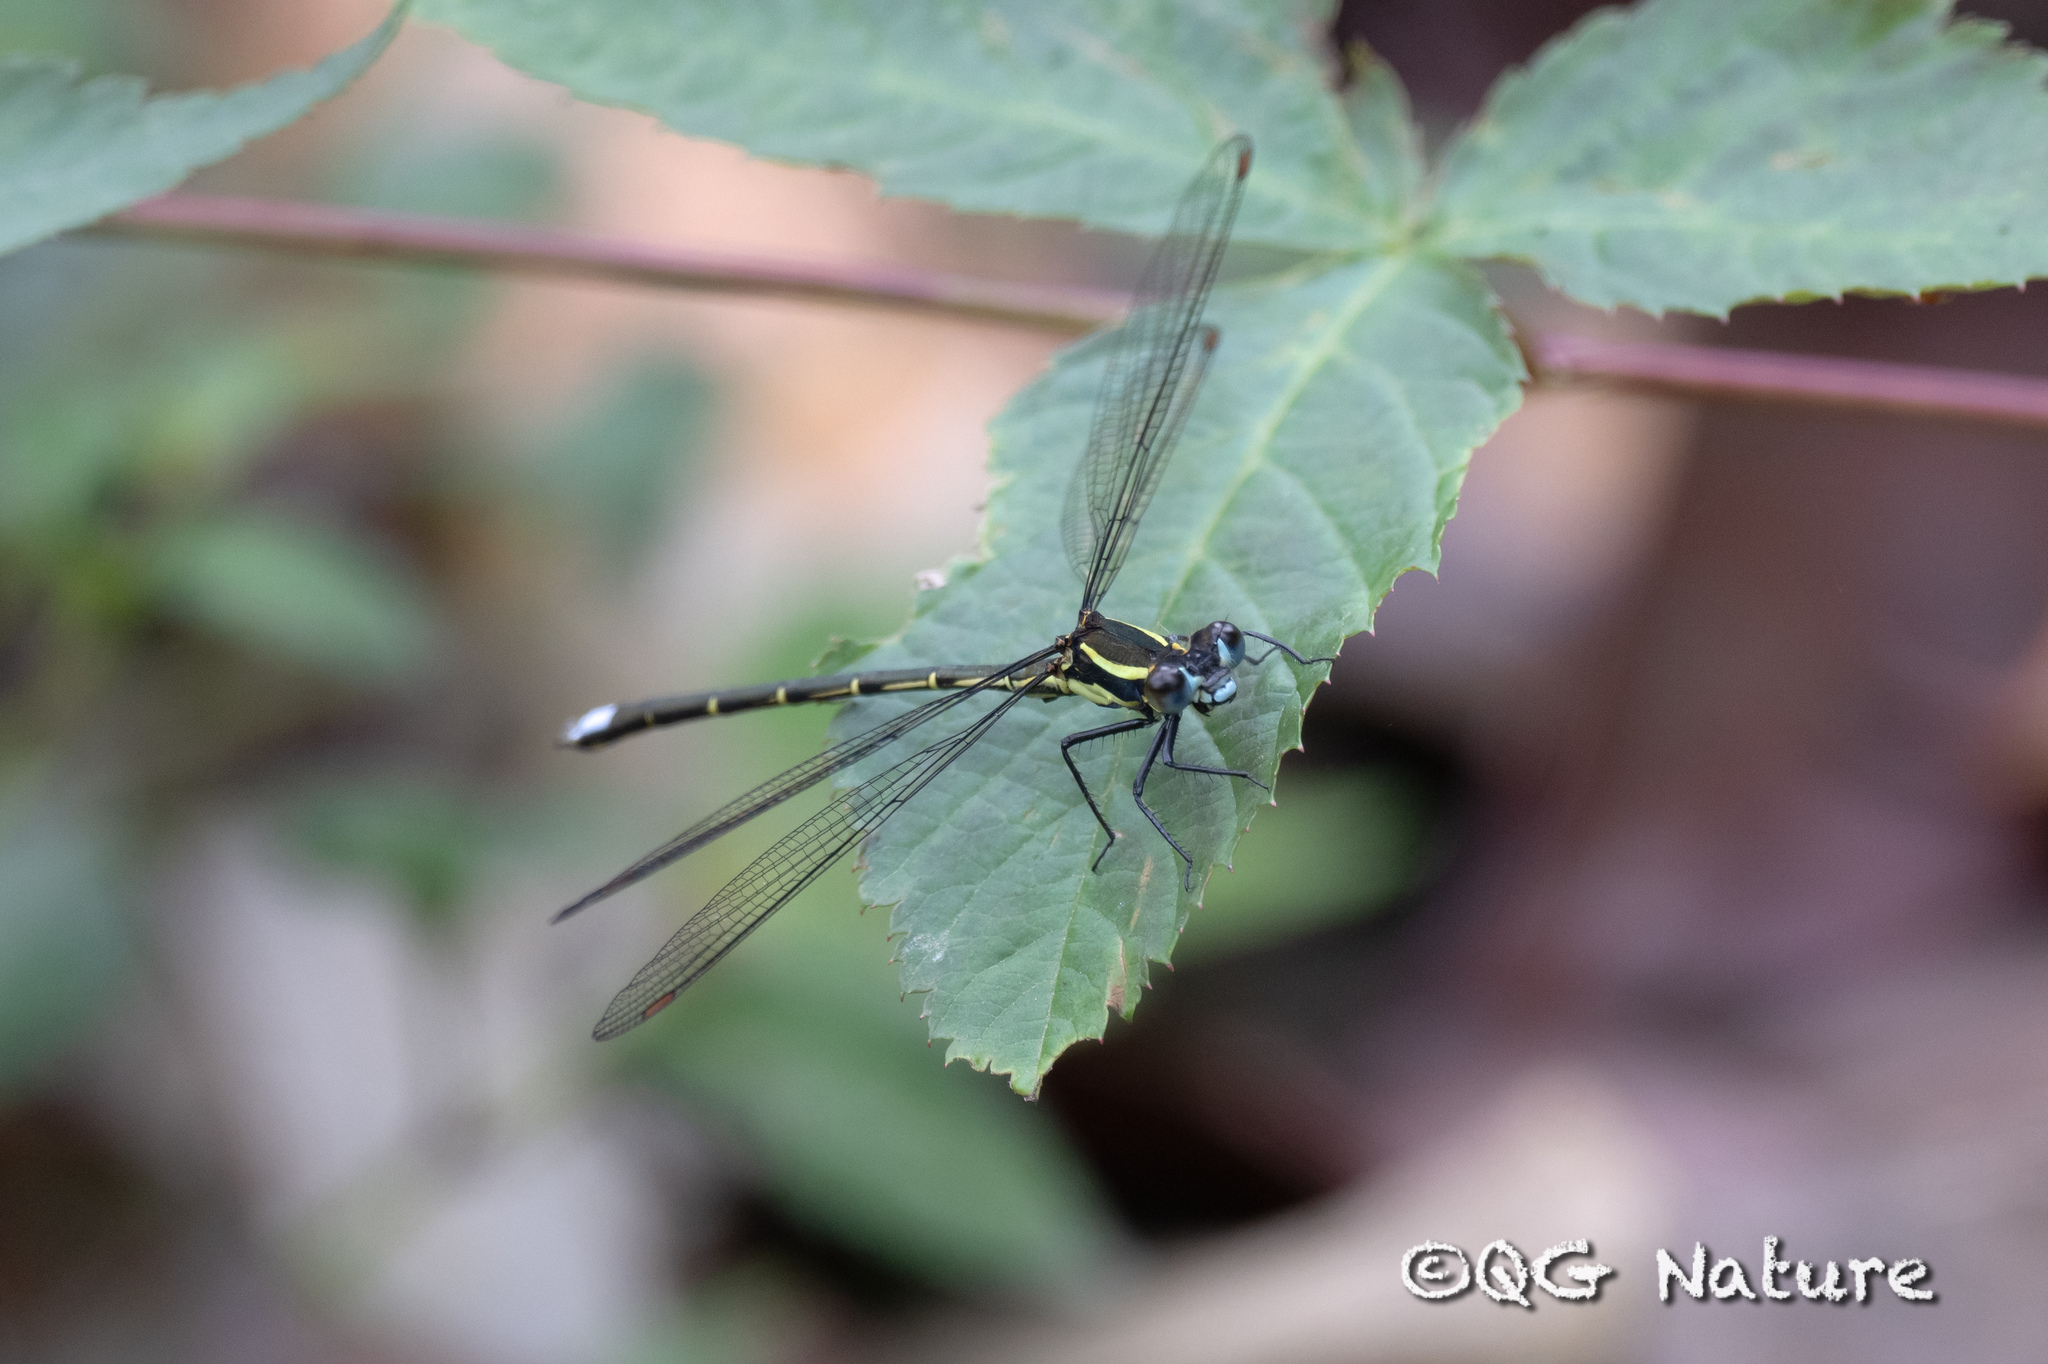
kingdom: Animalia
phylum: Arthropoda
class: Insecta
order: Odonata
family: Megapodagrionidae
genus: Mesopodagrion
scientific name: Mesopodagrion tibetanum
